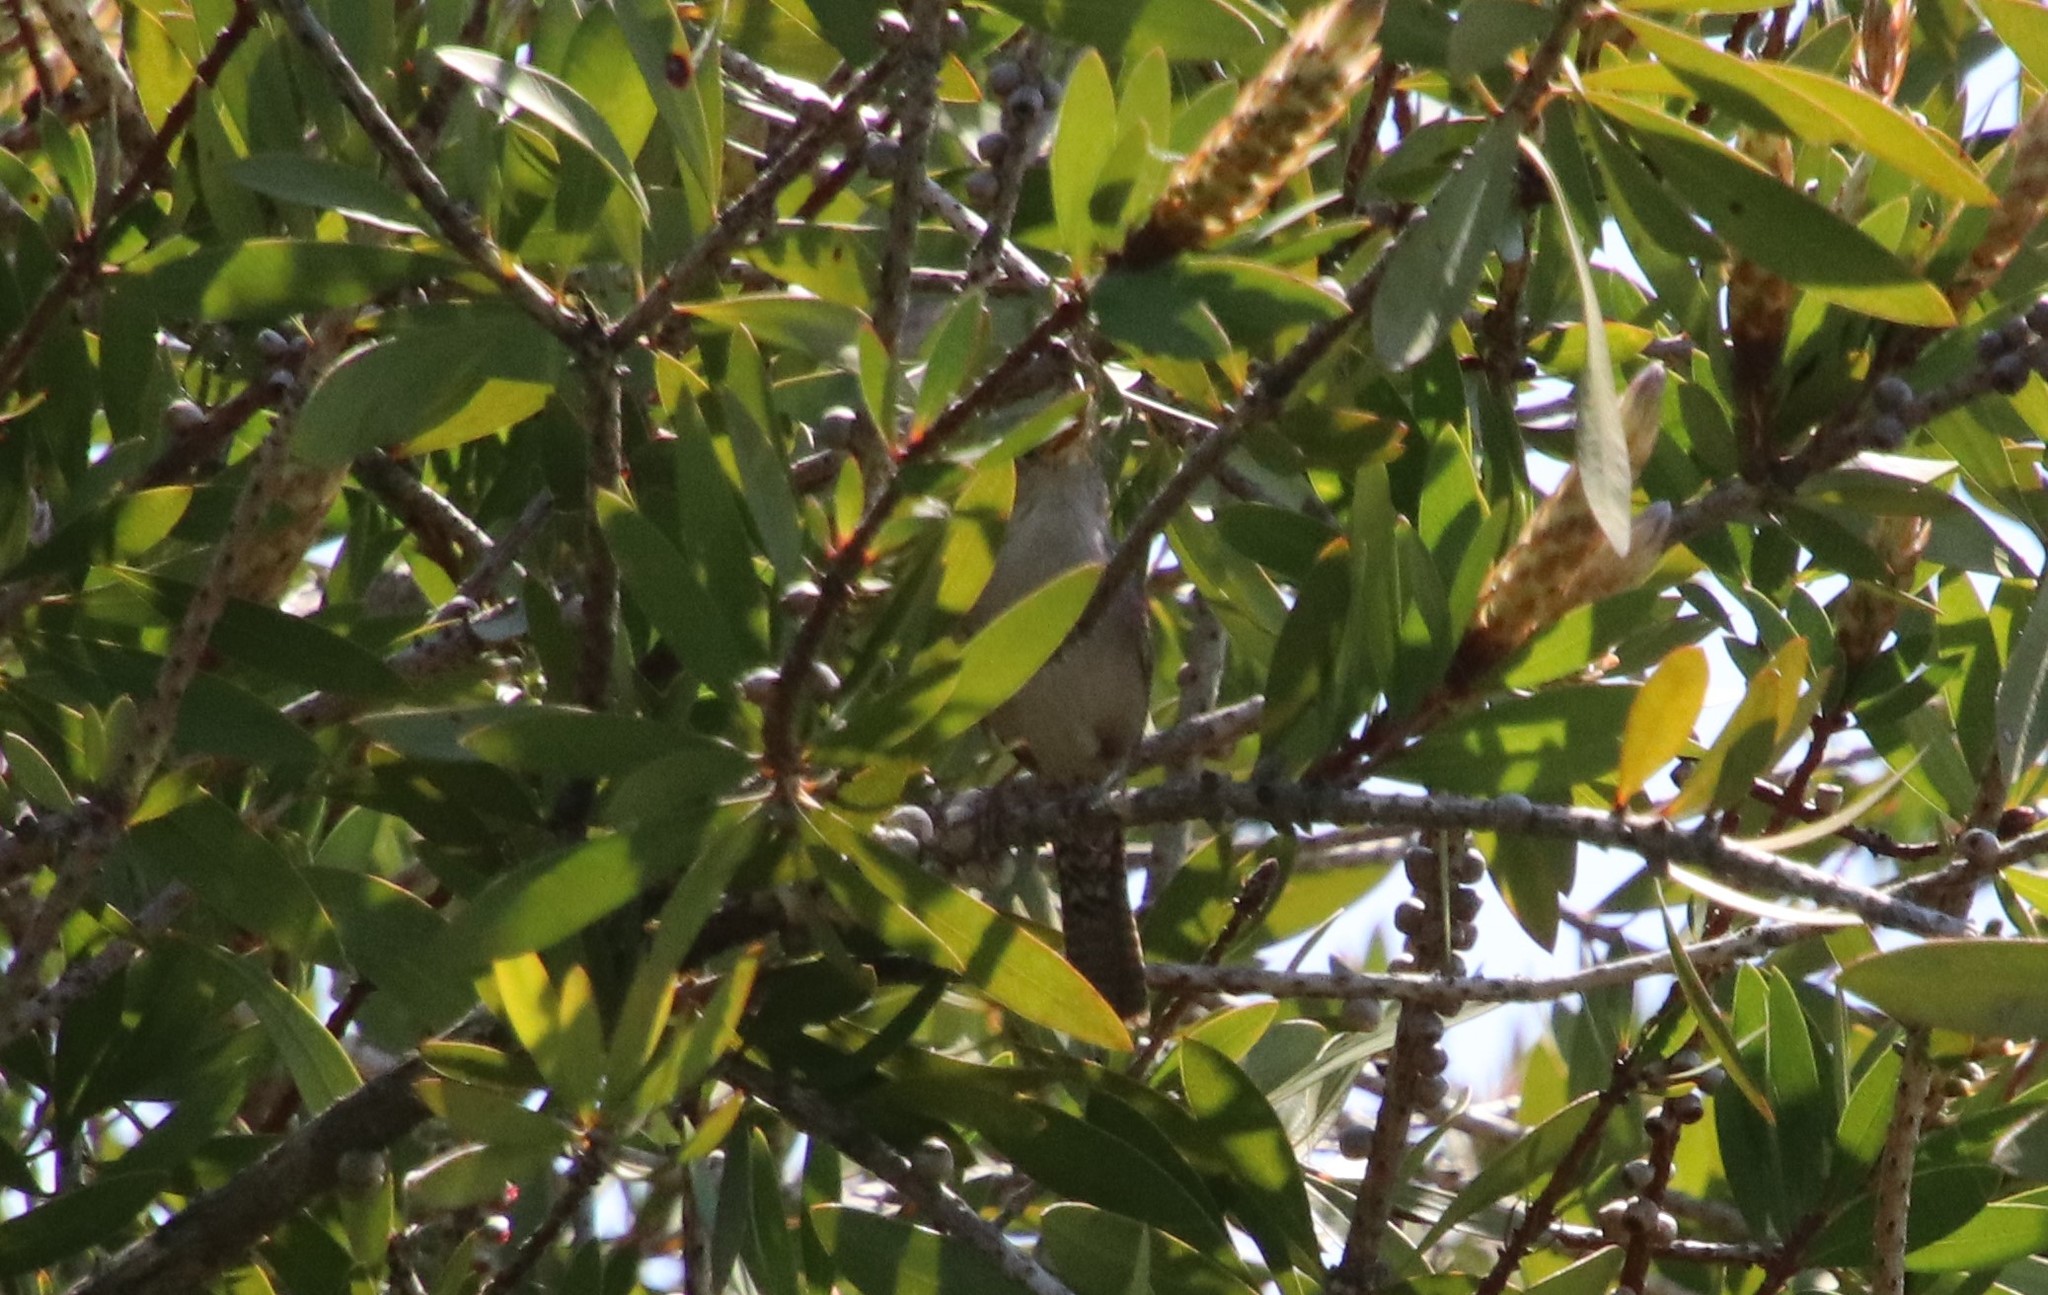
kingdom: Animalia
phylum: Chordata
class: Aves
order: Passeriformes
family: Troglodytidae
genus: Troglodytes
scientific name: Troglodytes aedon
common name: House wren
